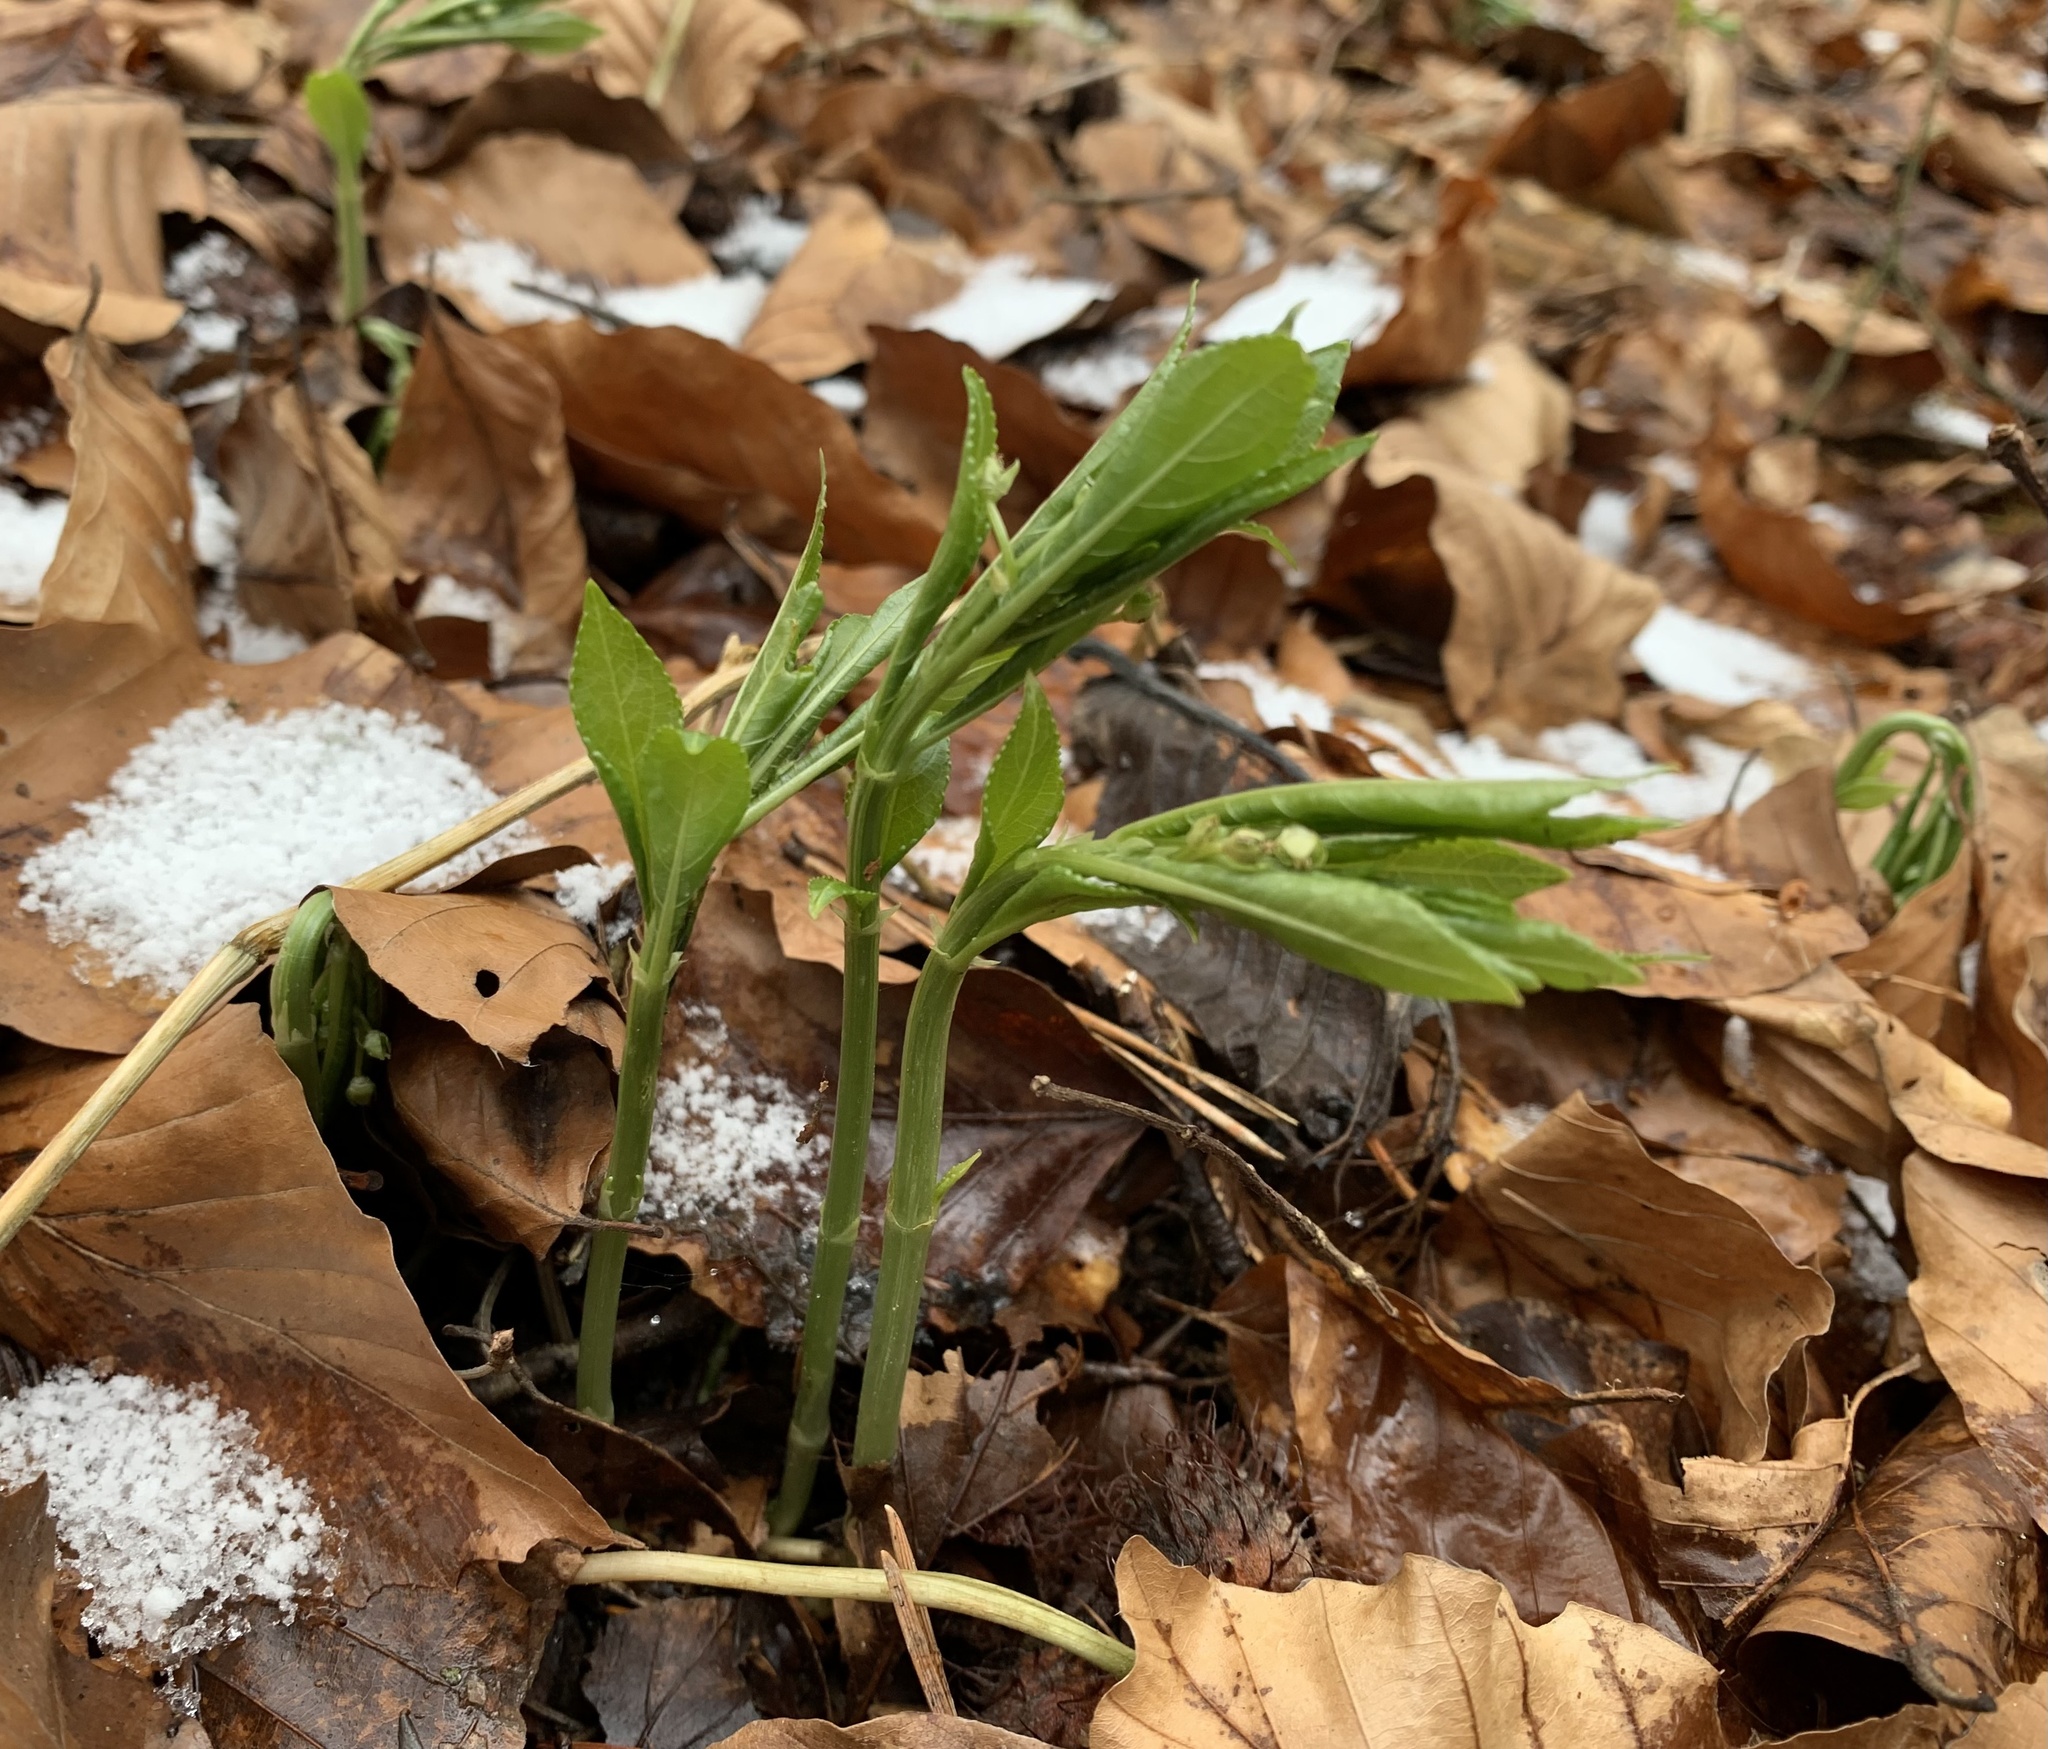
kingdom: Plantae
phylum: Tracheophyta
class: Magnoliopsida
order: Malpighiales
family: Euphorbiaceae
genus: Mercurialis
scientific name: Mercurialis perennis
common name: Dog mercury
